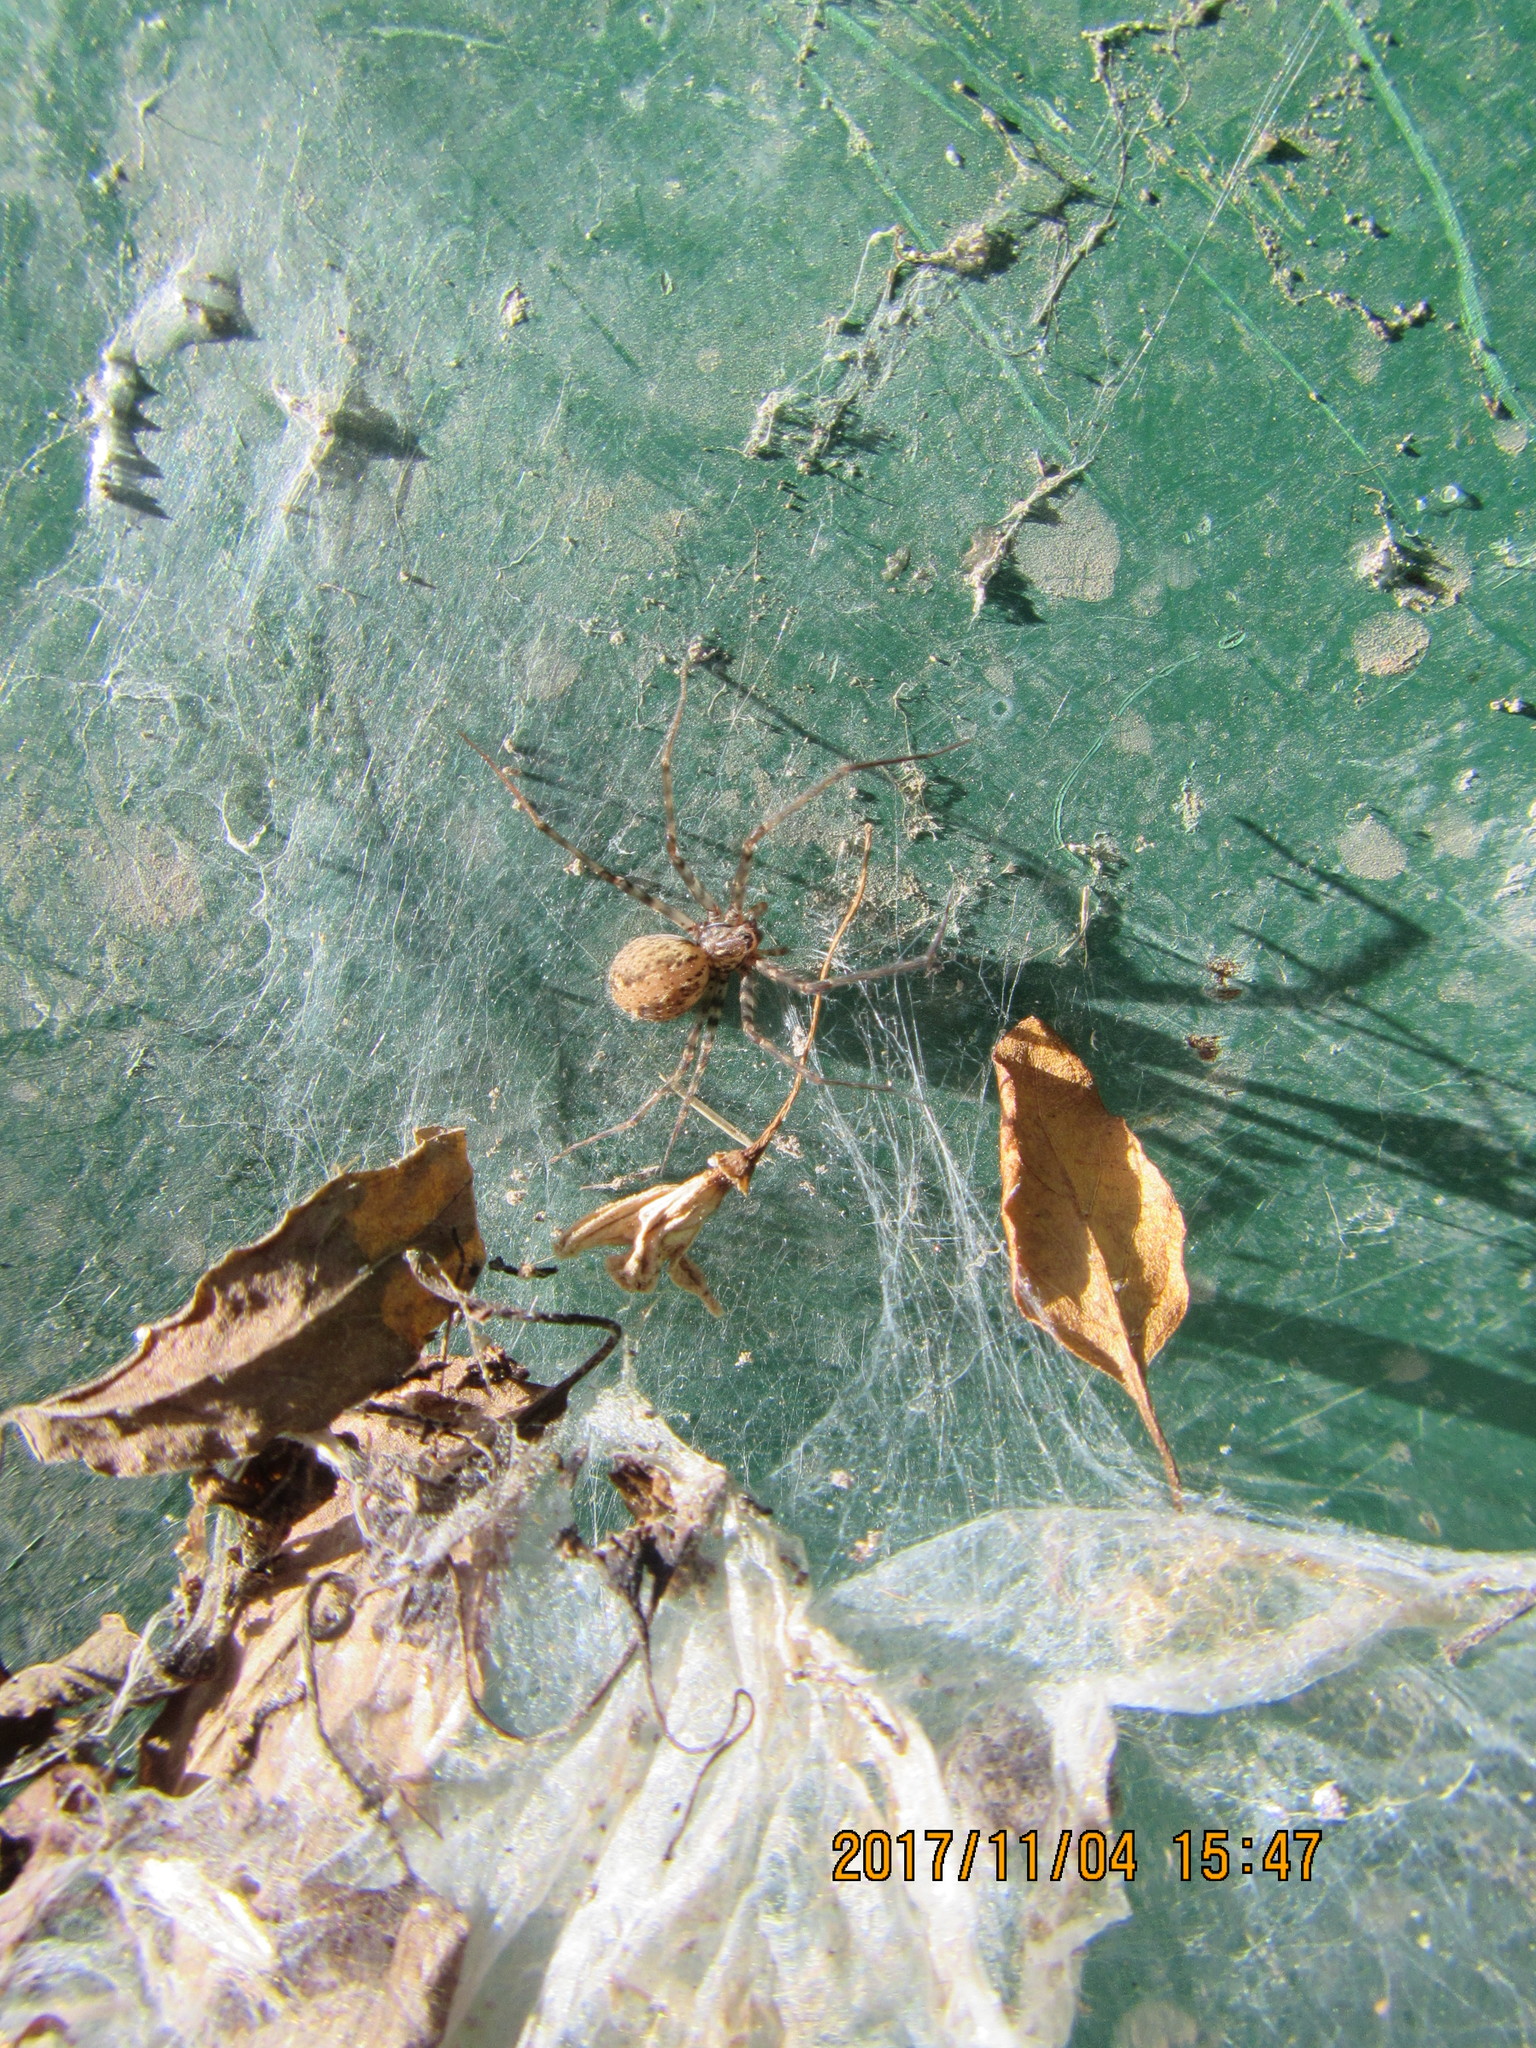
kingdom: Animalia
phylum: Arthropoda
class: Arachnida
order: Araneae
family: Stiphidiidae
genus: Stiphidion
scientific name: Stiphidion facetum
